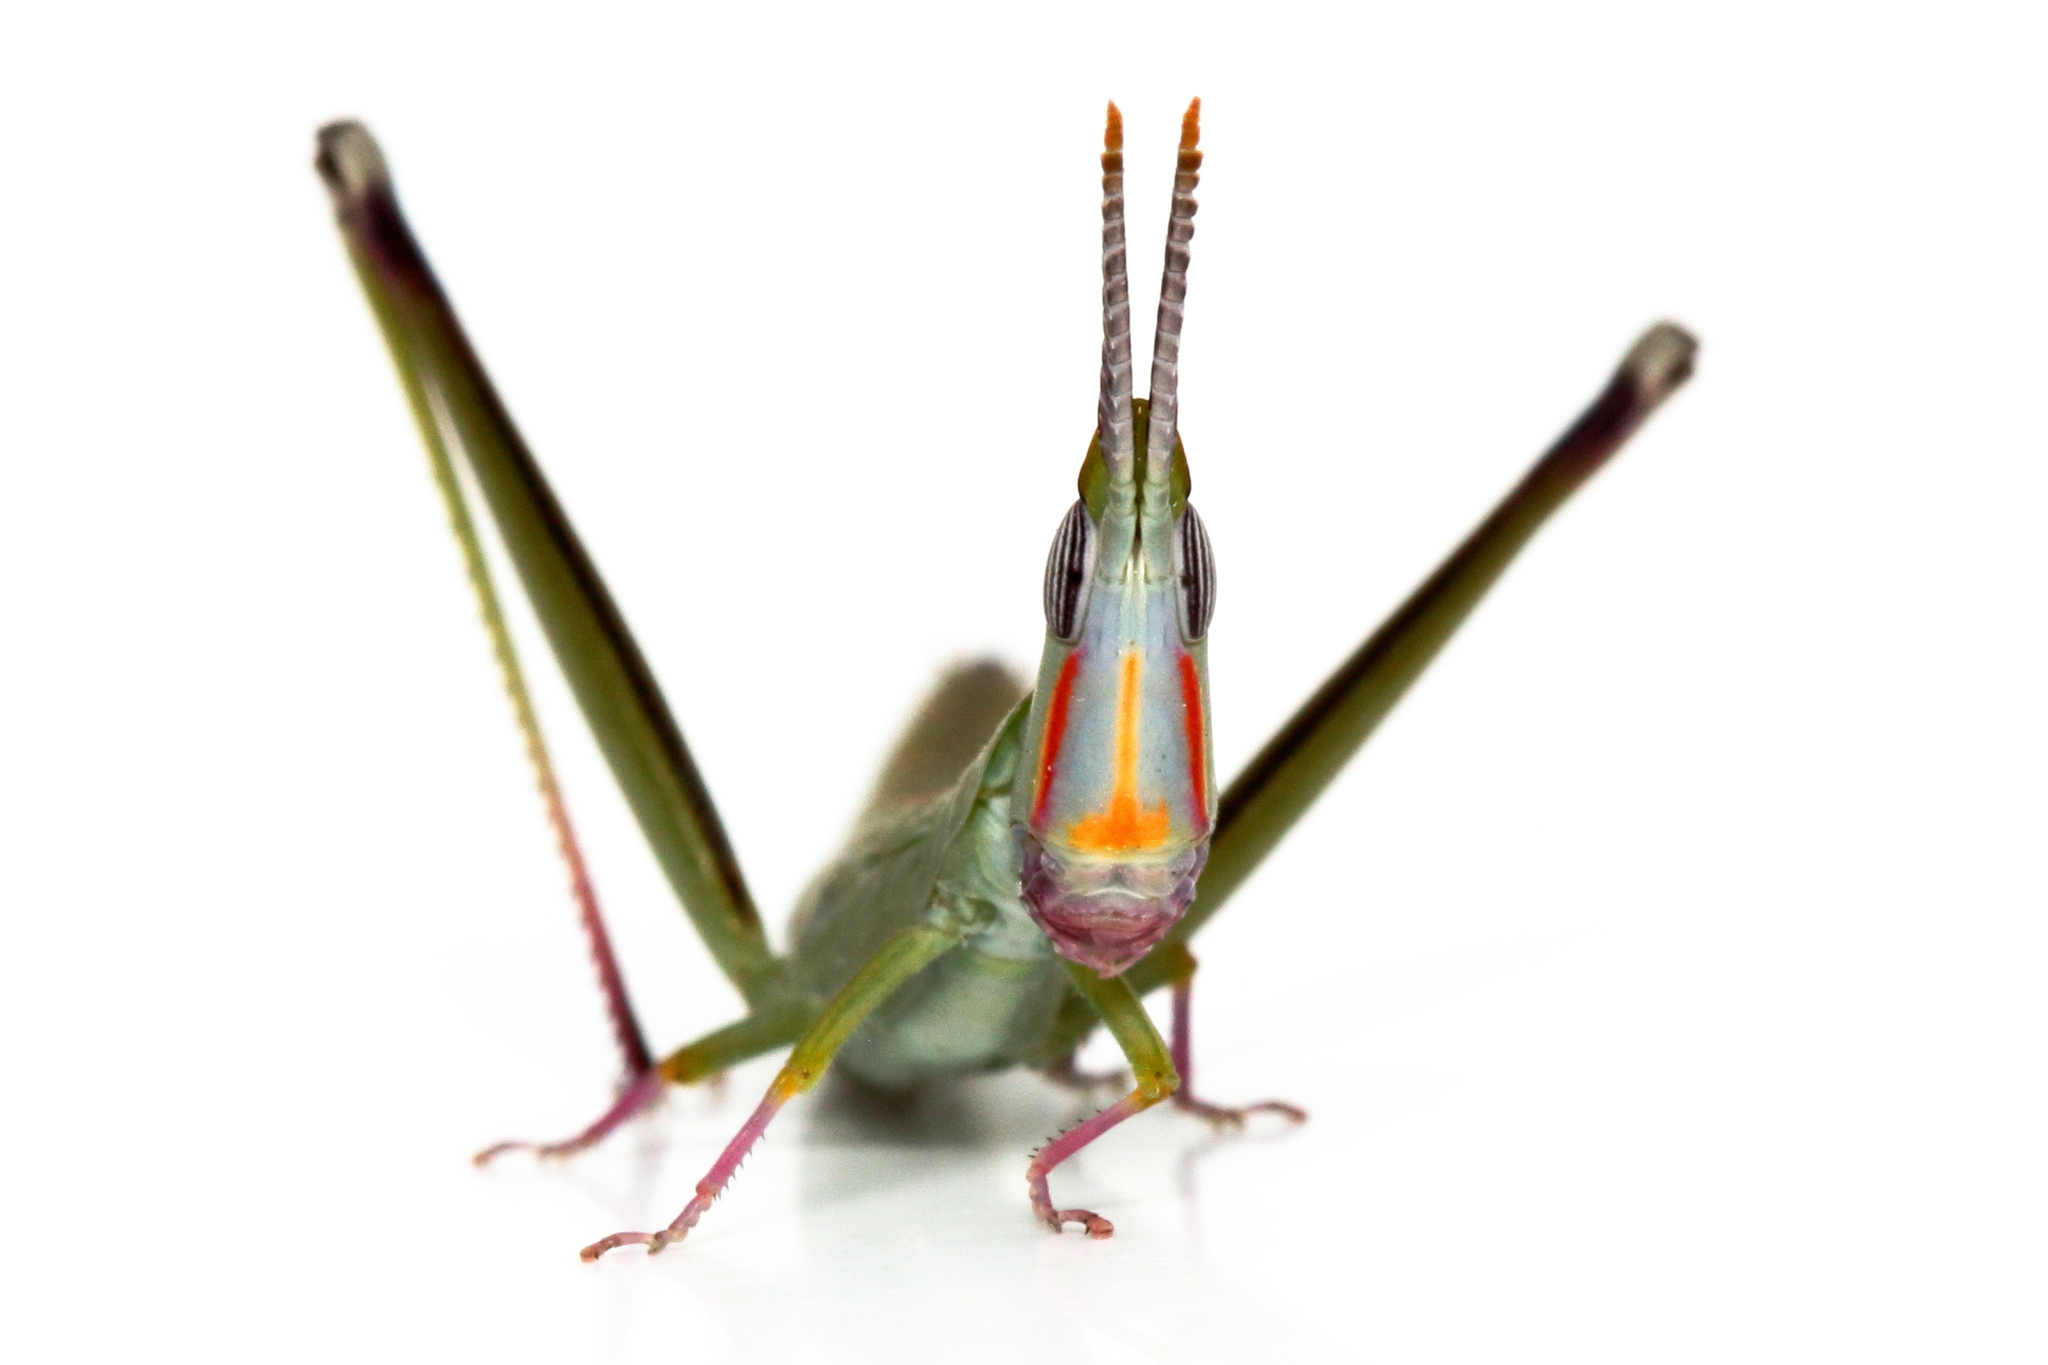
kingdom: Animalia
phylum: Arthropoda
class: Insecta
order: Orthoptera
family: Morabidae
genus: Warramaba
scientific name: Warramaba ngadju
